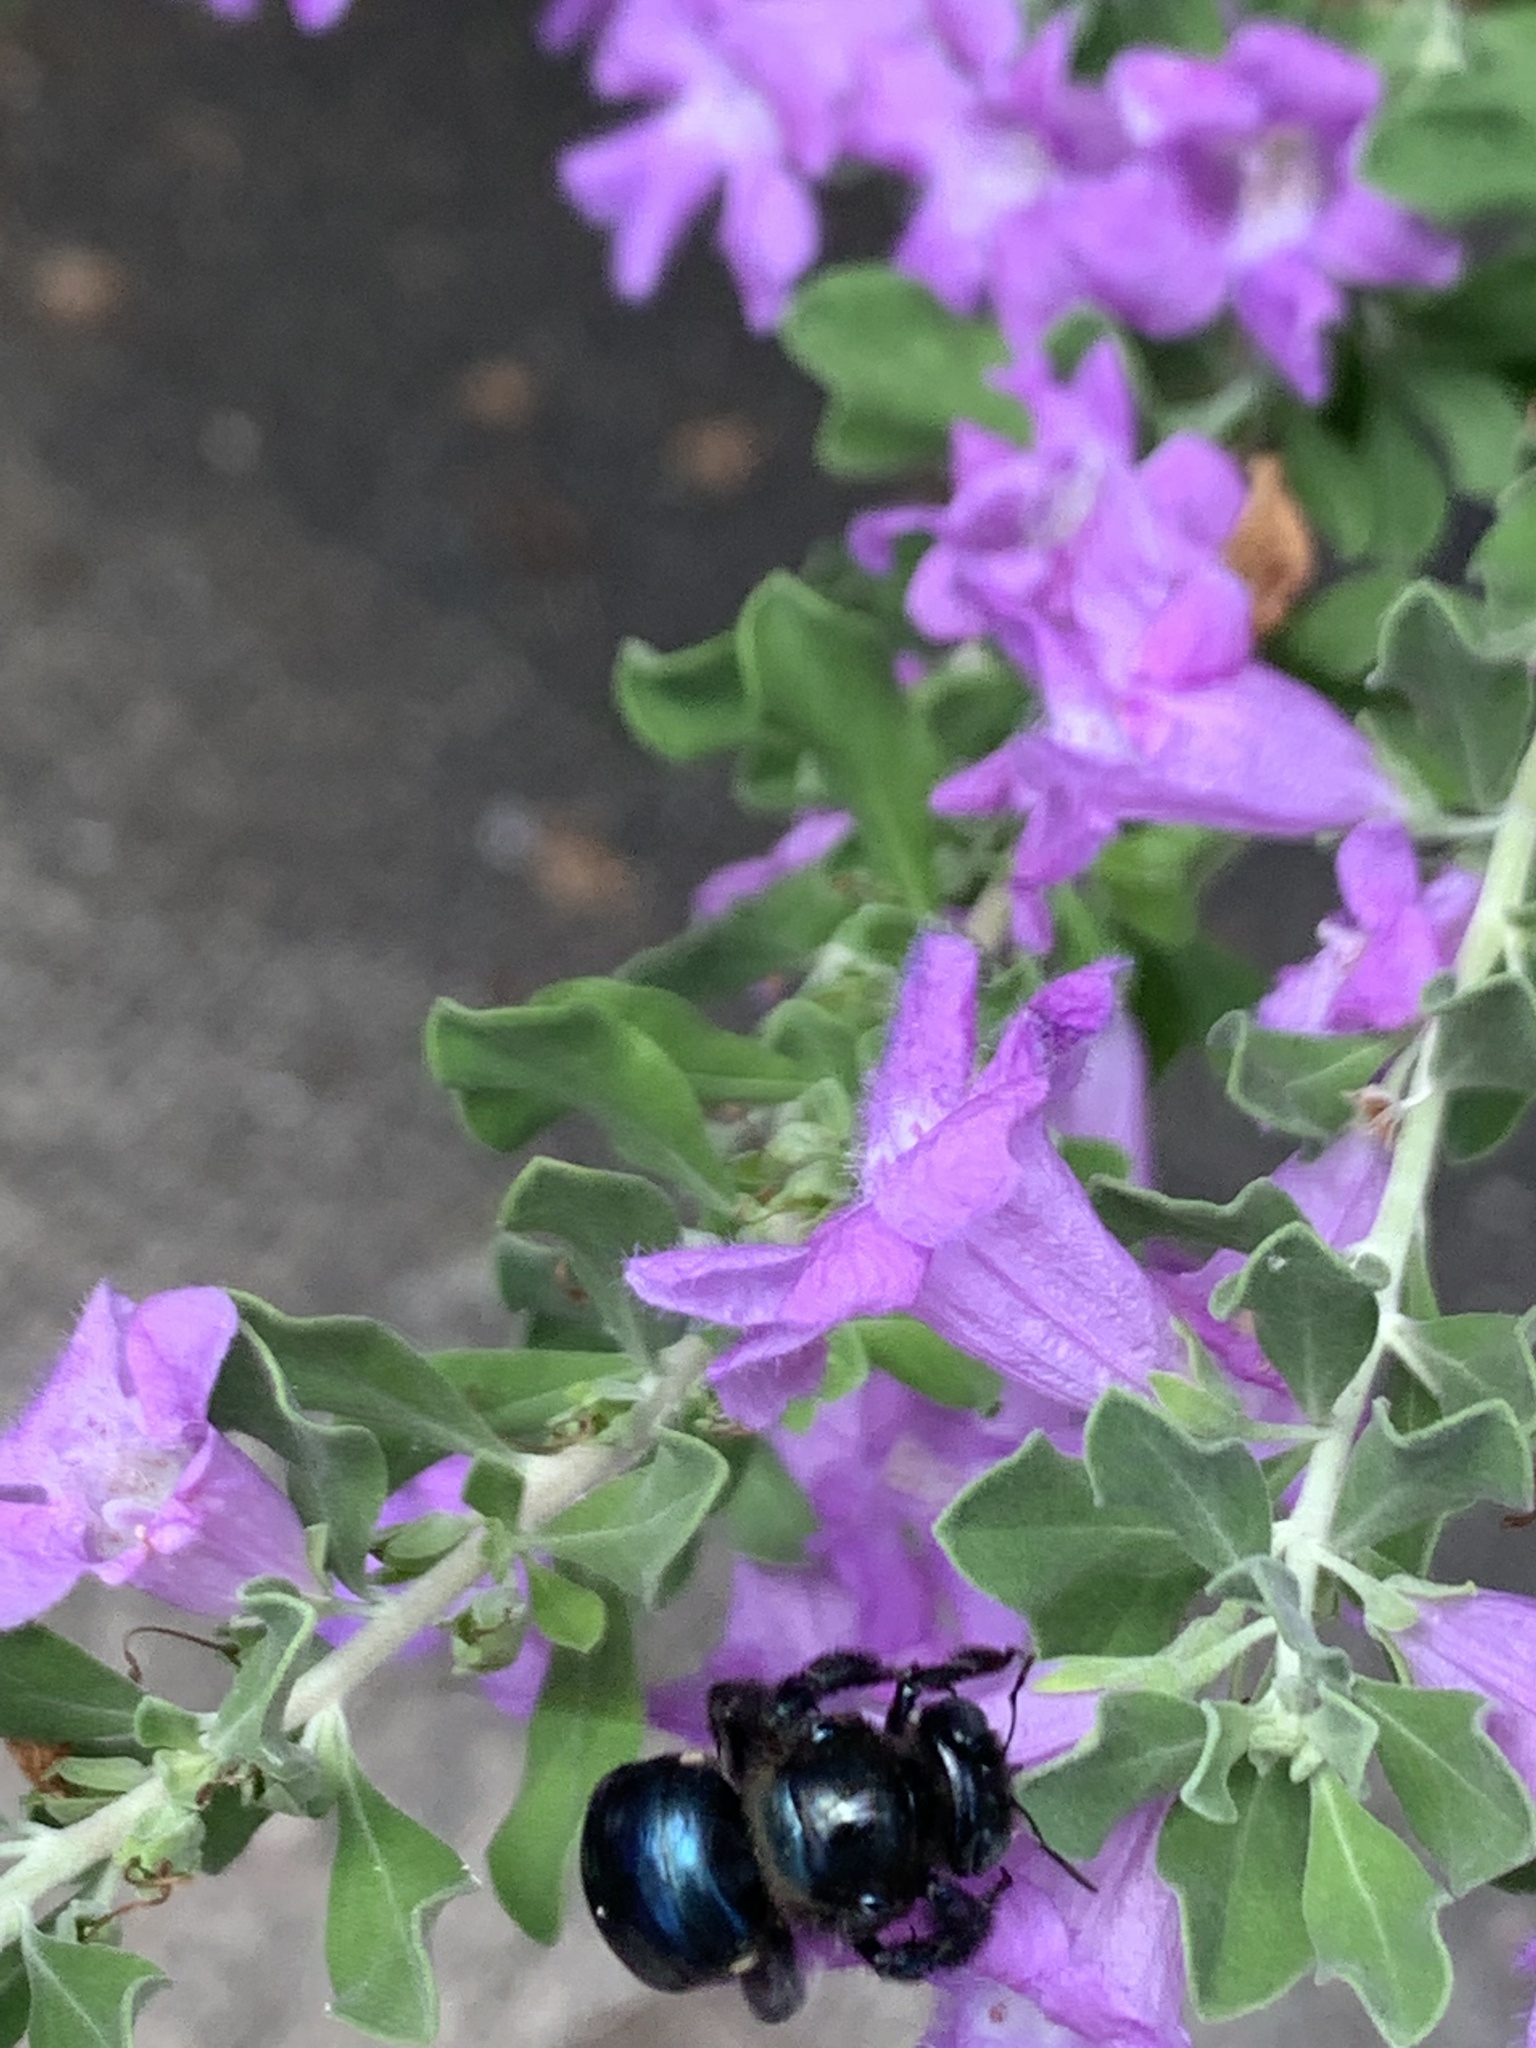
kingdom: Animalia
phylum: Arthropoda
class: Insecta
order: Hymenoptera
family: Apidae
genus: Xylocopa
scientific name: Xylocopa micans
